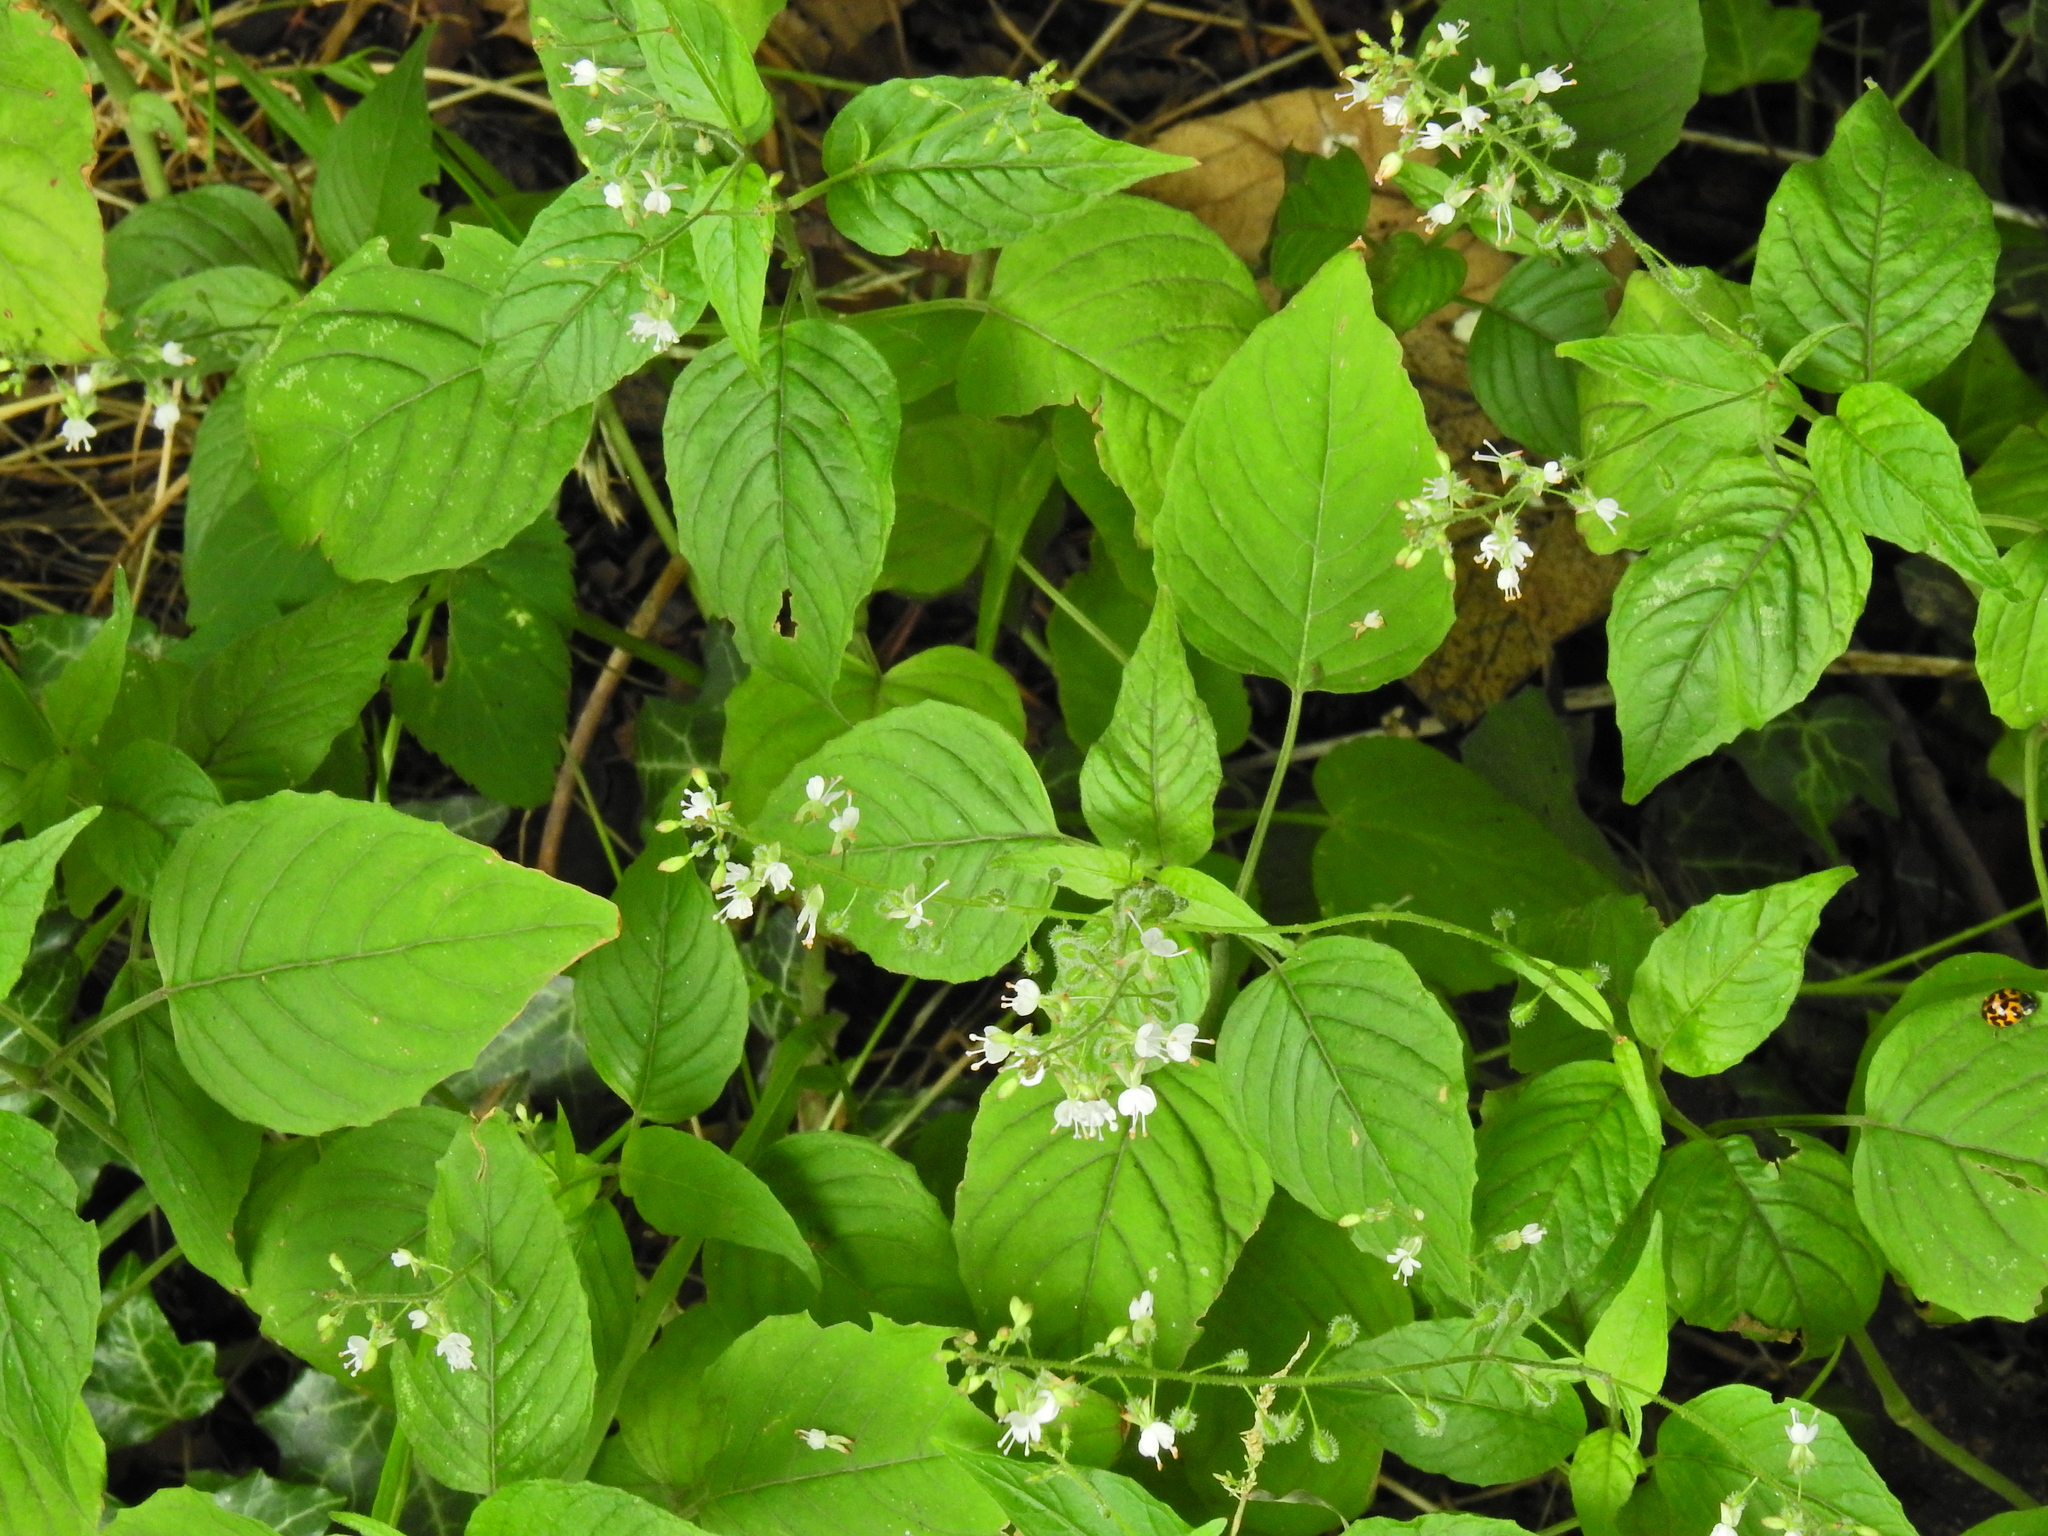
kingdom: Plantae
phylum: Tracheophyta
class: Magnoliopsida
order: Myrtales
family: Onagraceae
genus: Circaea
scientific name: Circaea lutetiana
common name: Enchanter's-nightshade
